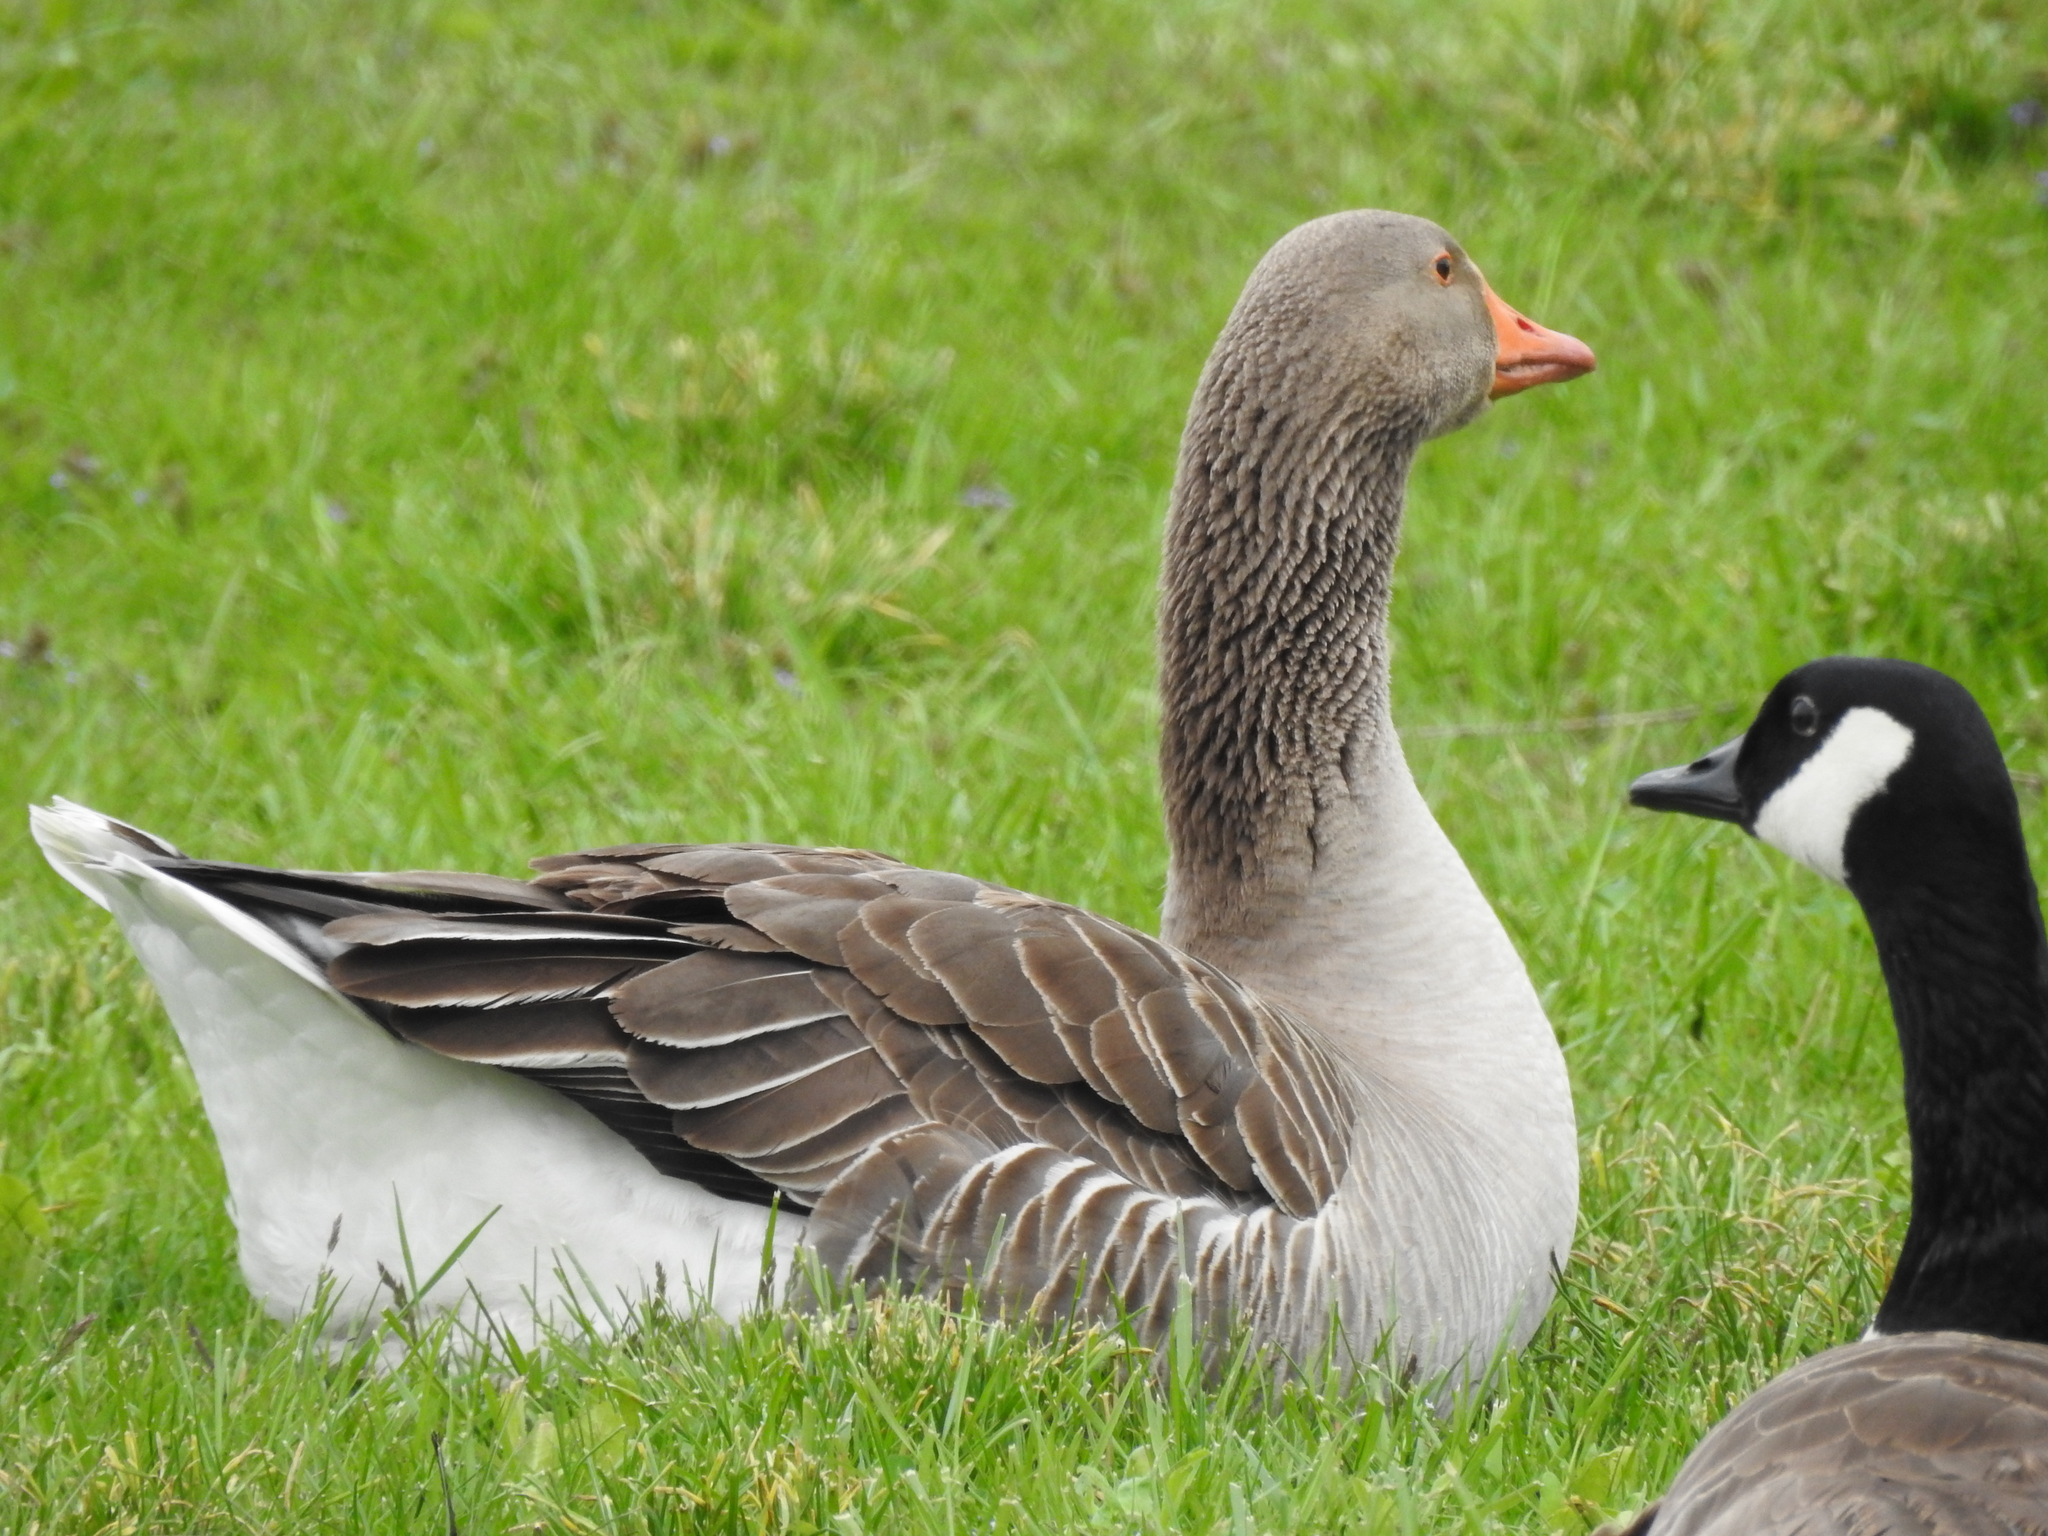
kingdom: Animalia
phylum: Chordata
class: Aves
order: Anseriformes
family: Anatidae
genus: Anser
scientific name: Anser anser
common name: Greylag goose
